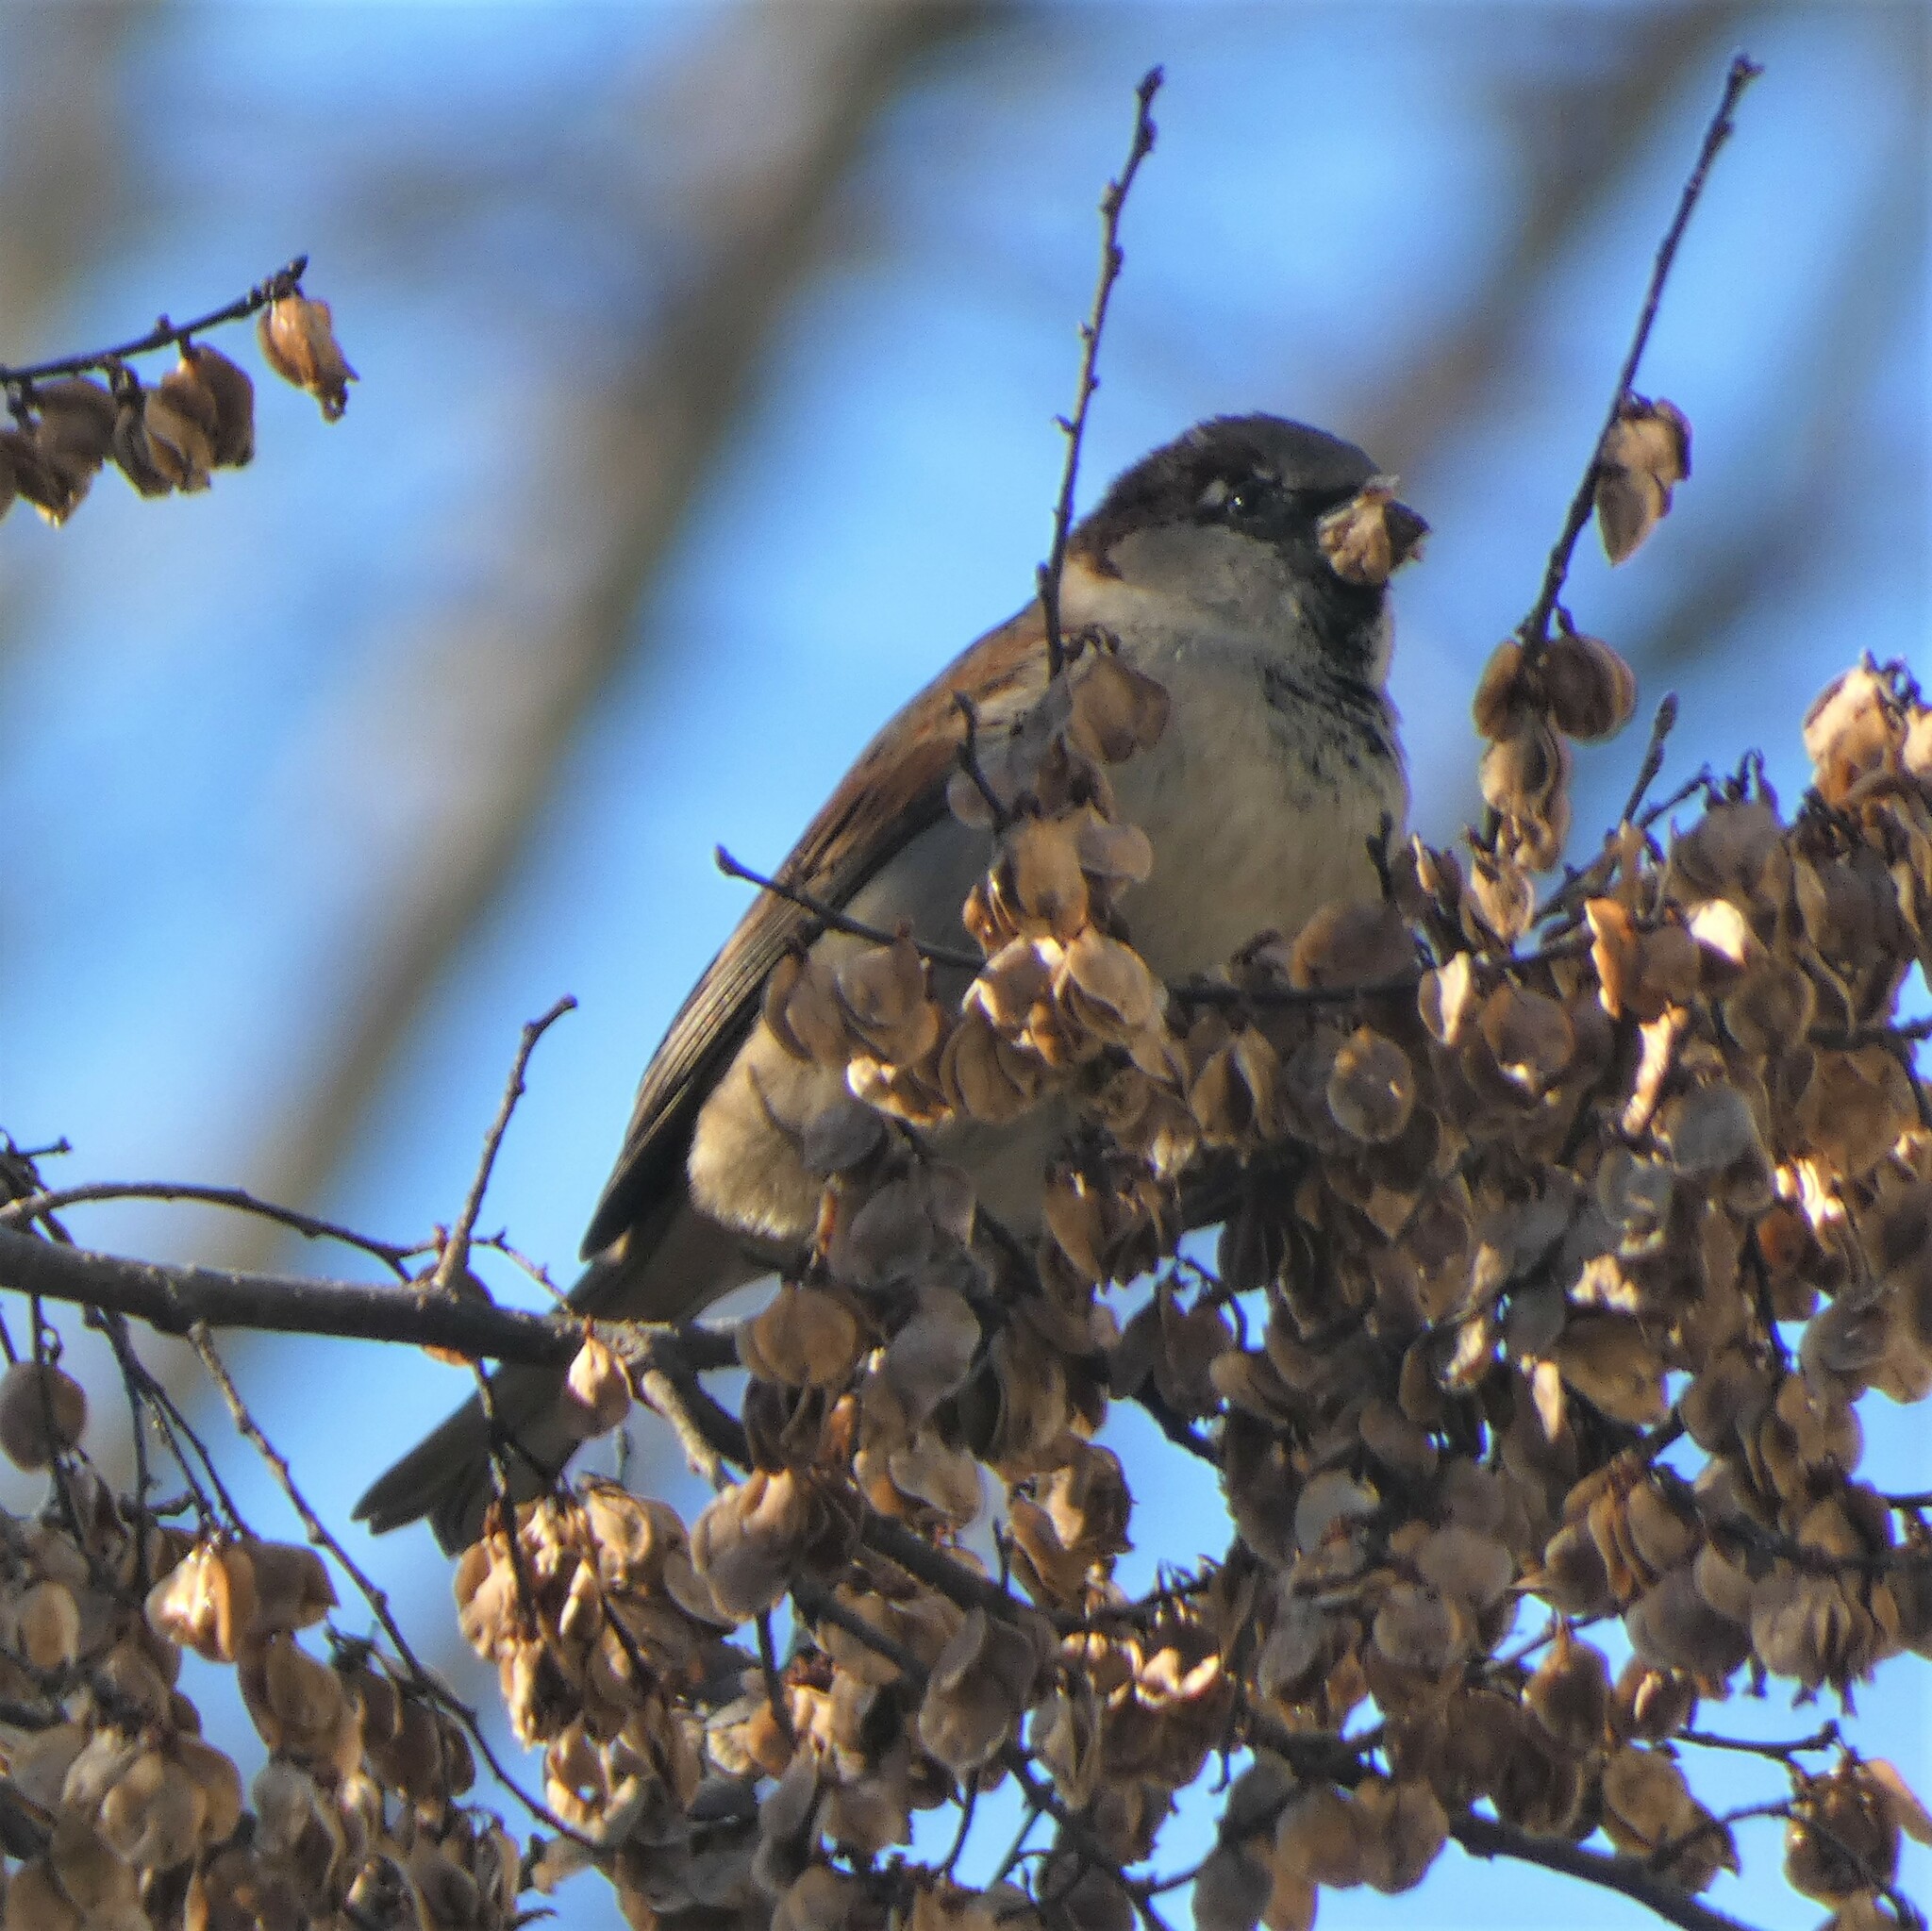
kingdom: Animalia
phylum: Chordata
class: Aves
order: Passeriformes
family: Passeridae
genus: Passer
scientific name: Passer domesticus
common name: House sparrow
